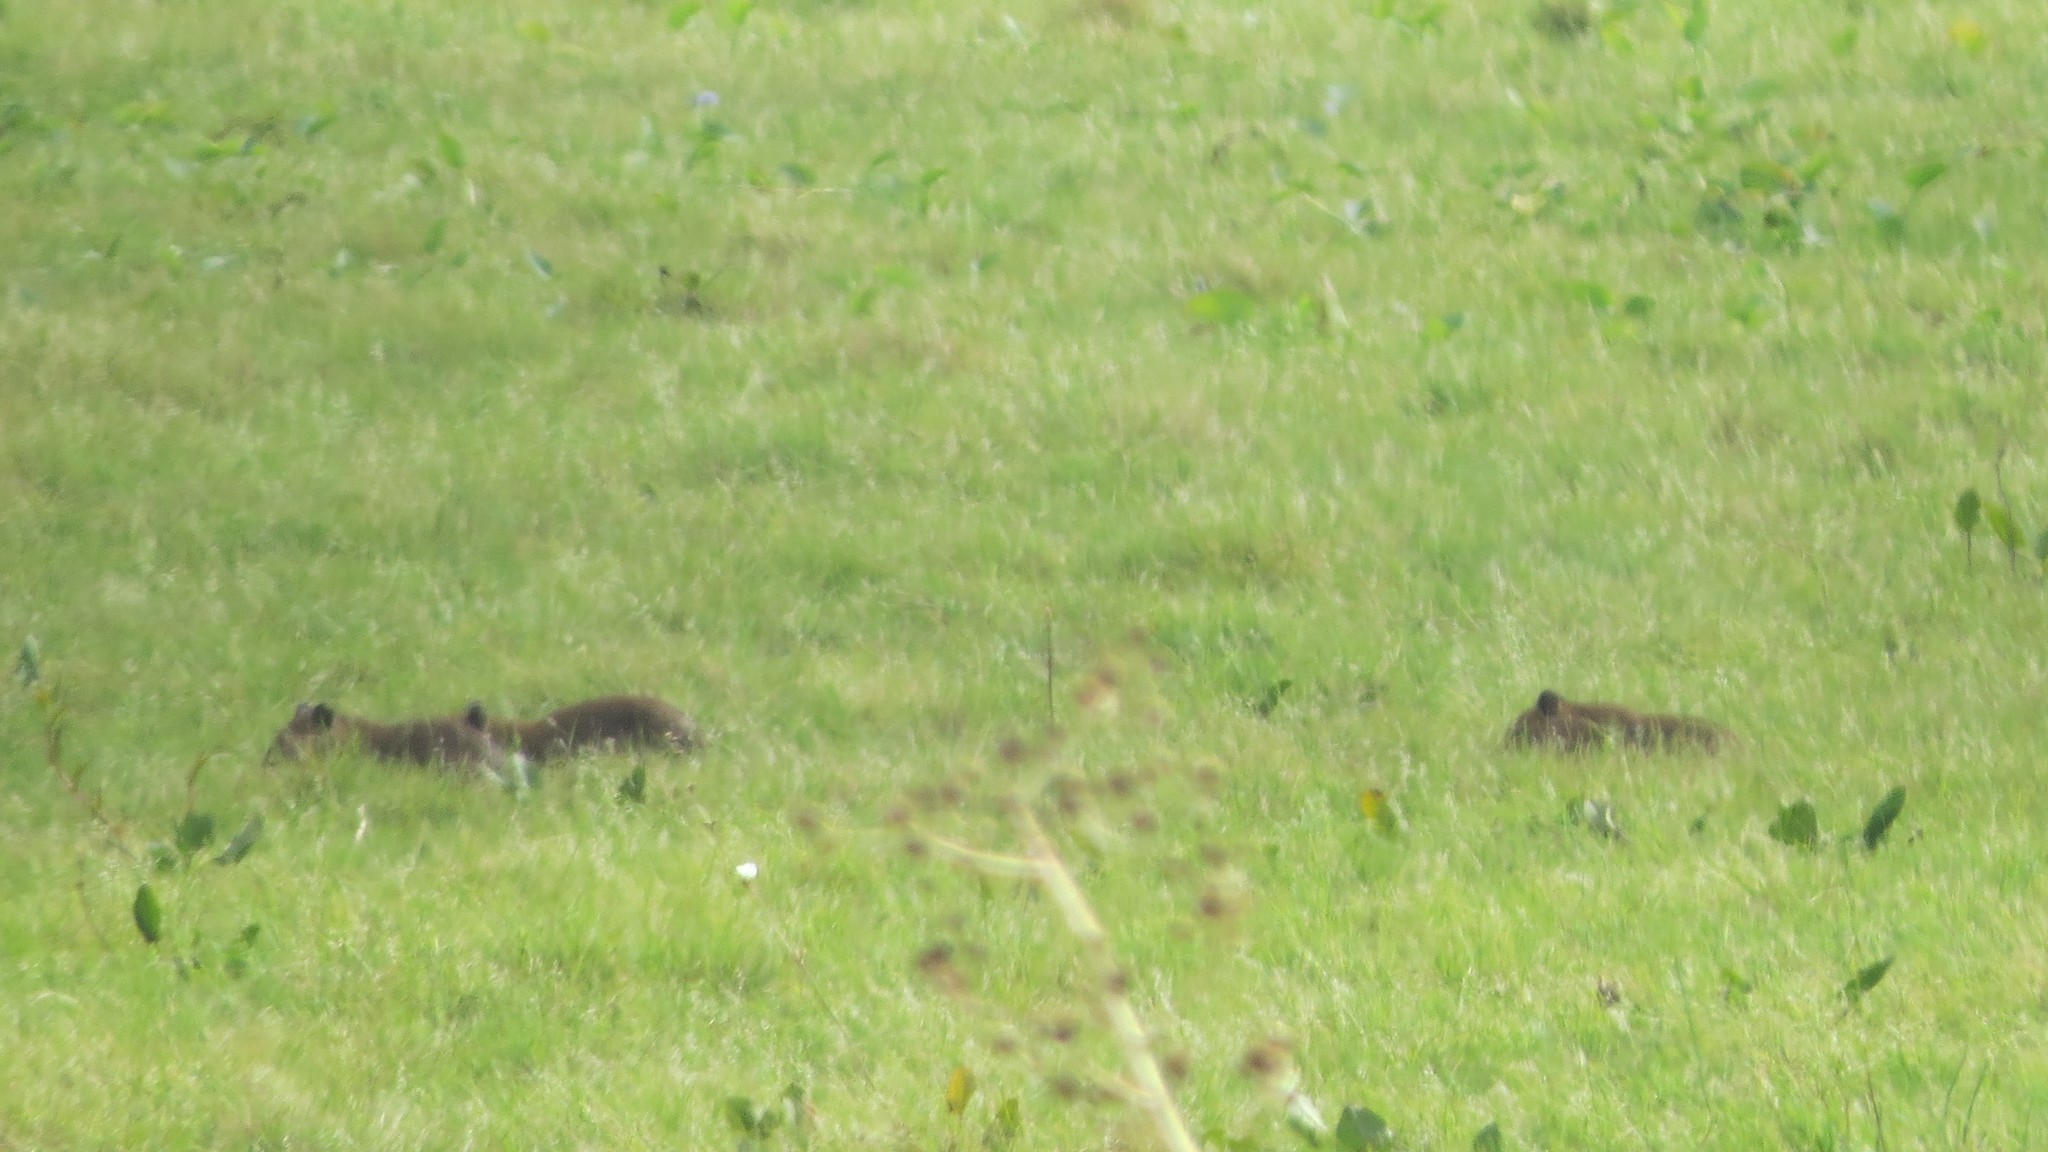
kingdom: Animalia
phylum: Chordata
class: Mammalia
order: Rodentia
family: Caviidae
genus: Hydrochoerus
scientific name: Hydrochoerus hydrochaeris
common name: Capybara
